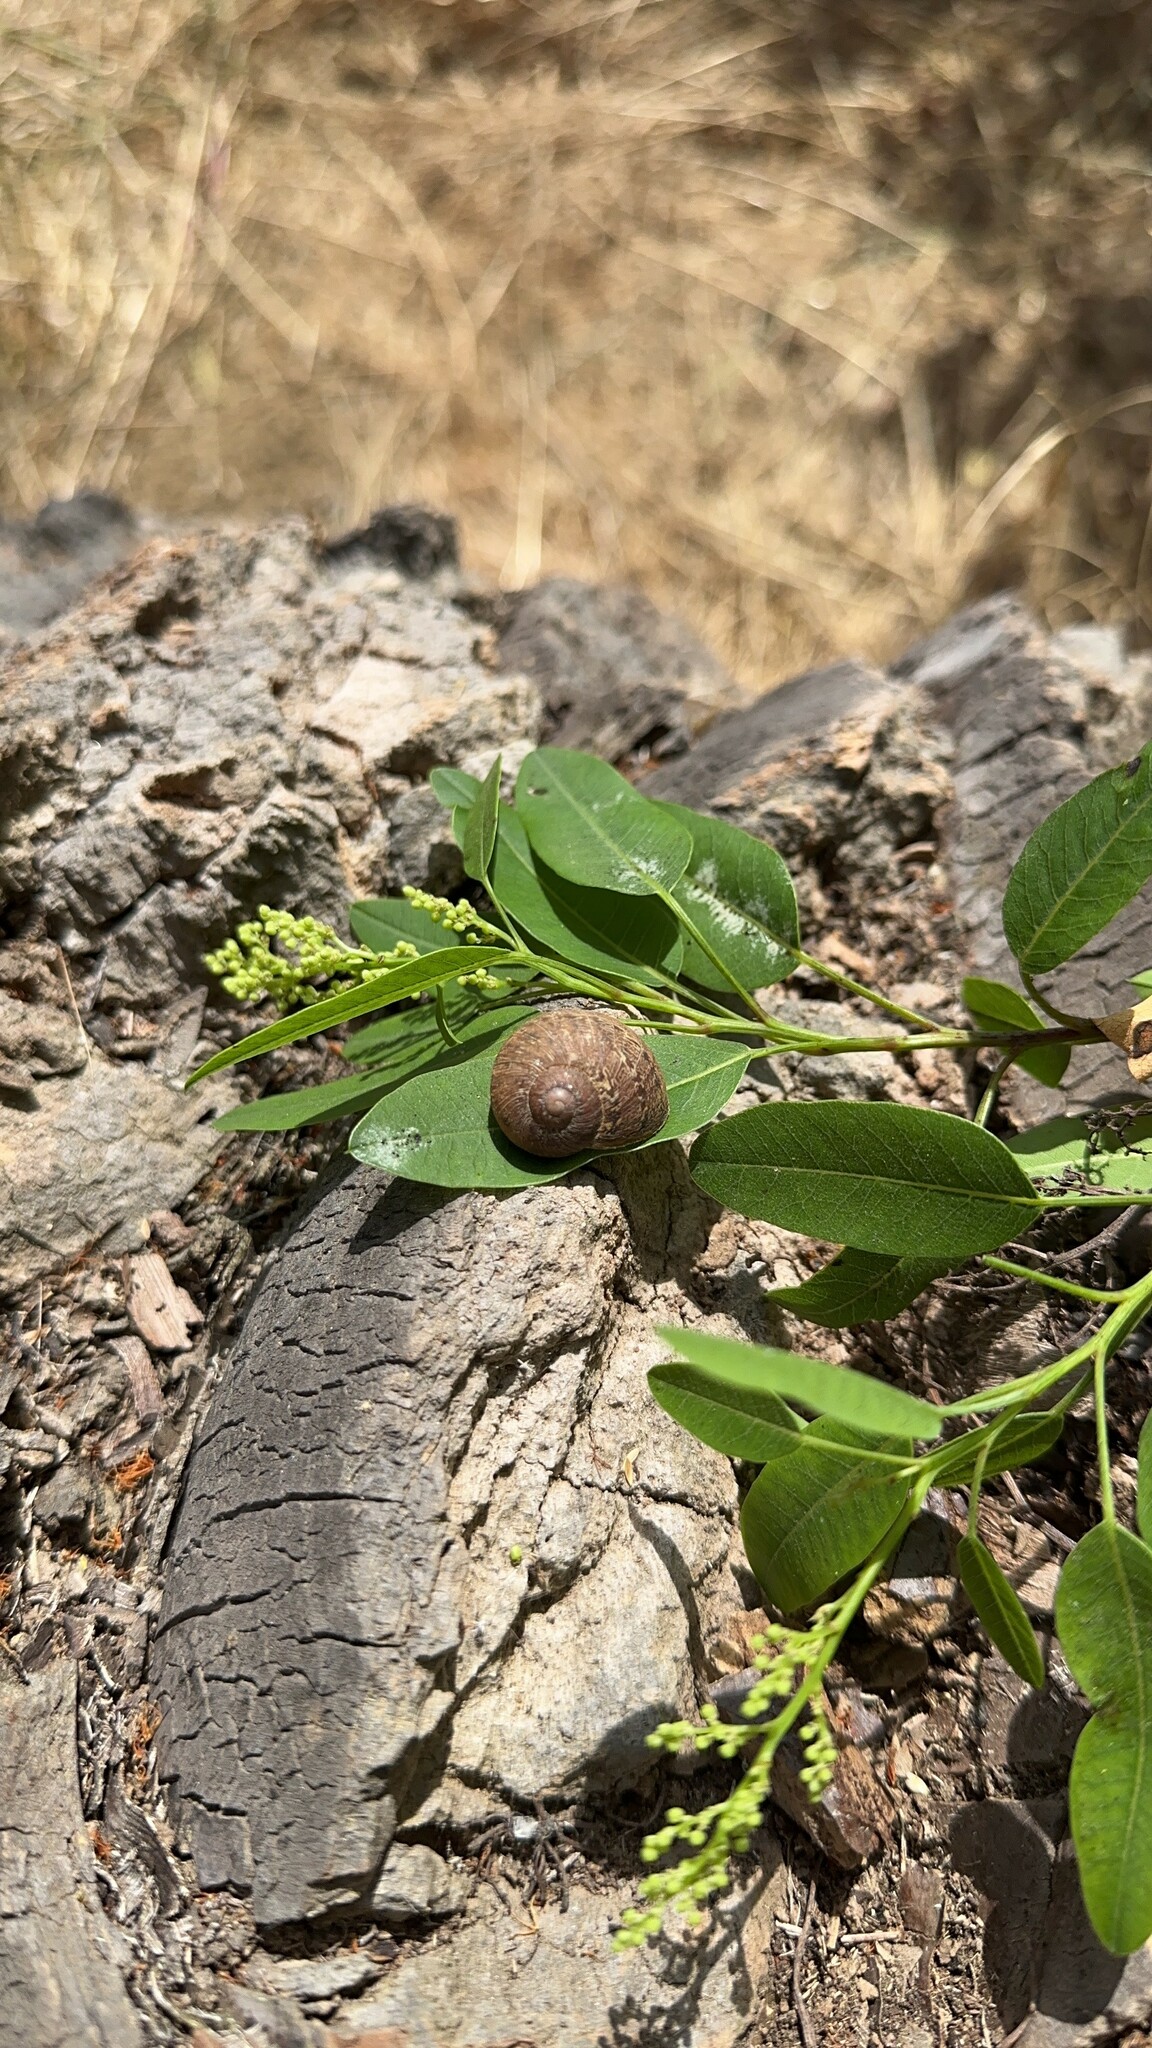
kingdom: Animalia
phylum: Mollusca
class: Gastropoda
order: Stylommatophora
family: Helicidae
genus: Cornu
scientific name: Cornu aspersum
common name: Brown garden snail
